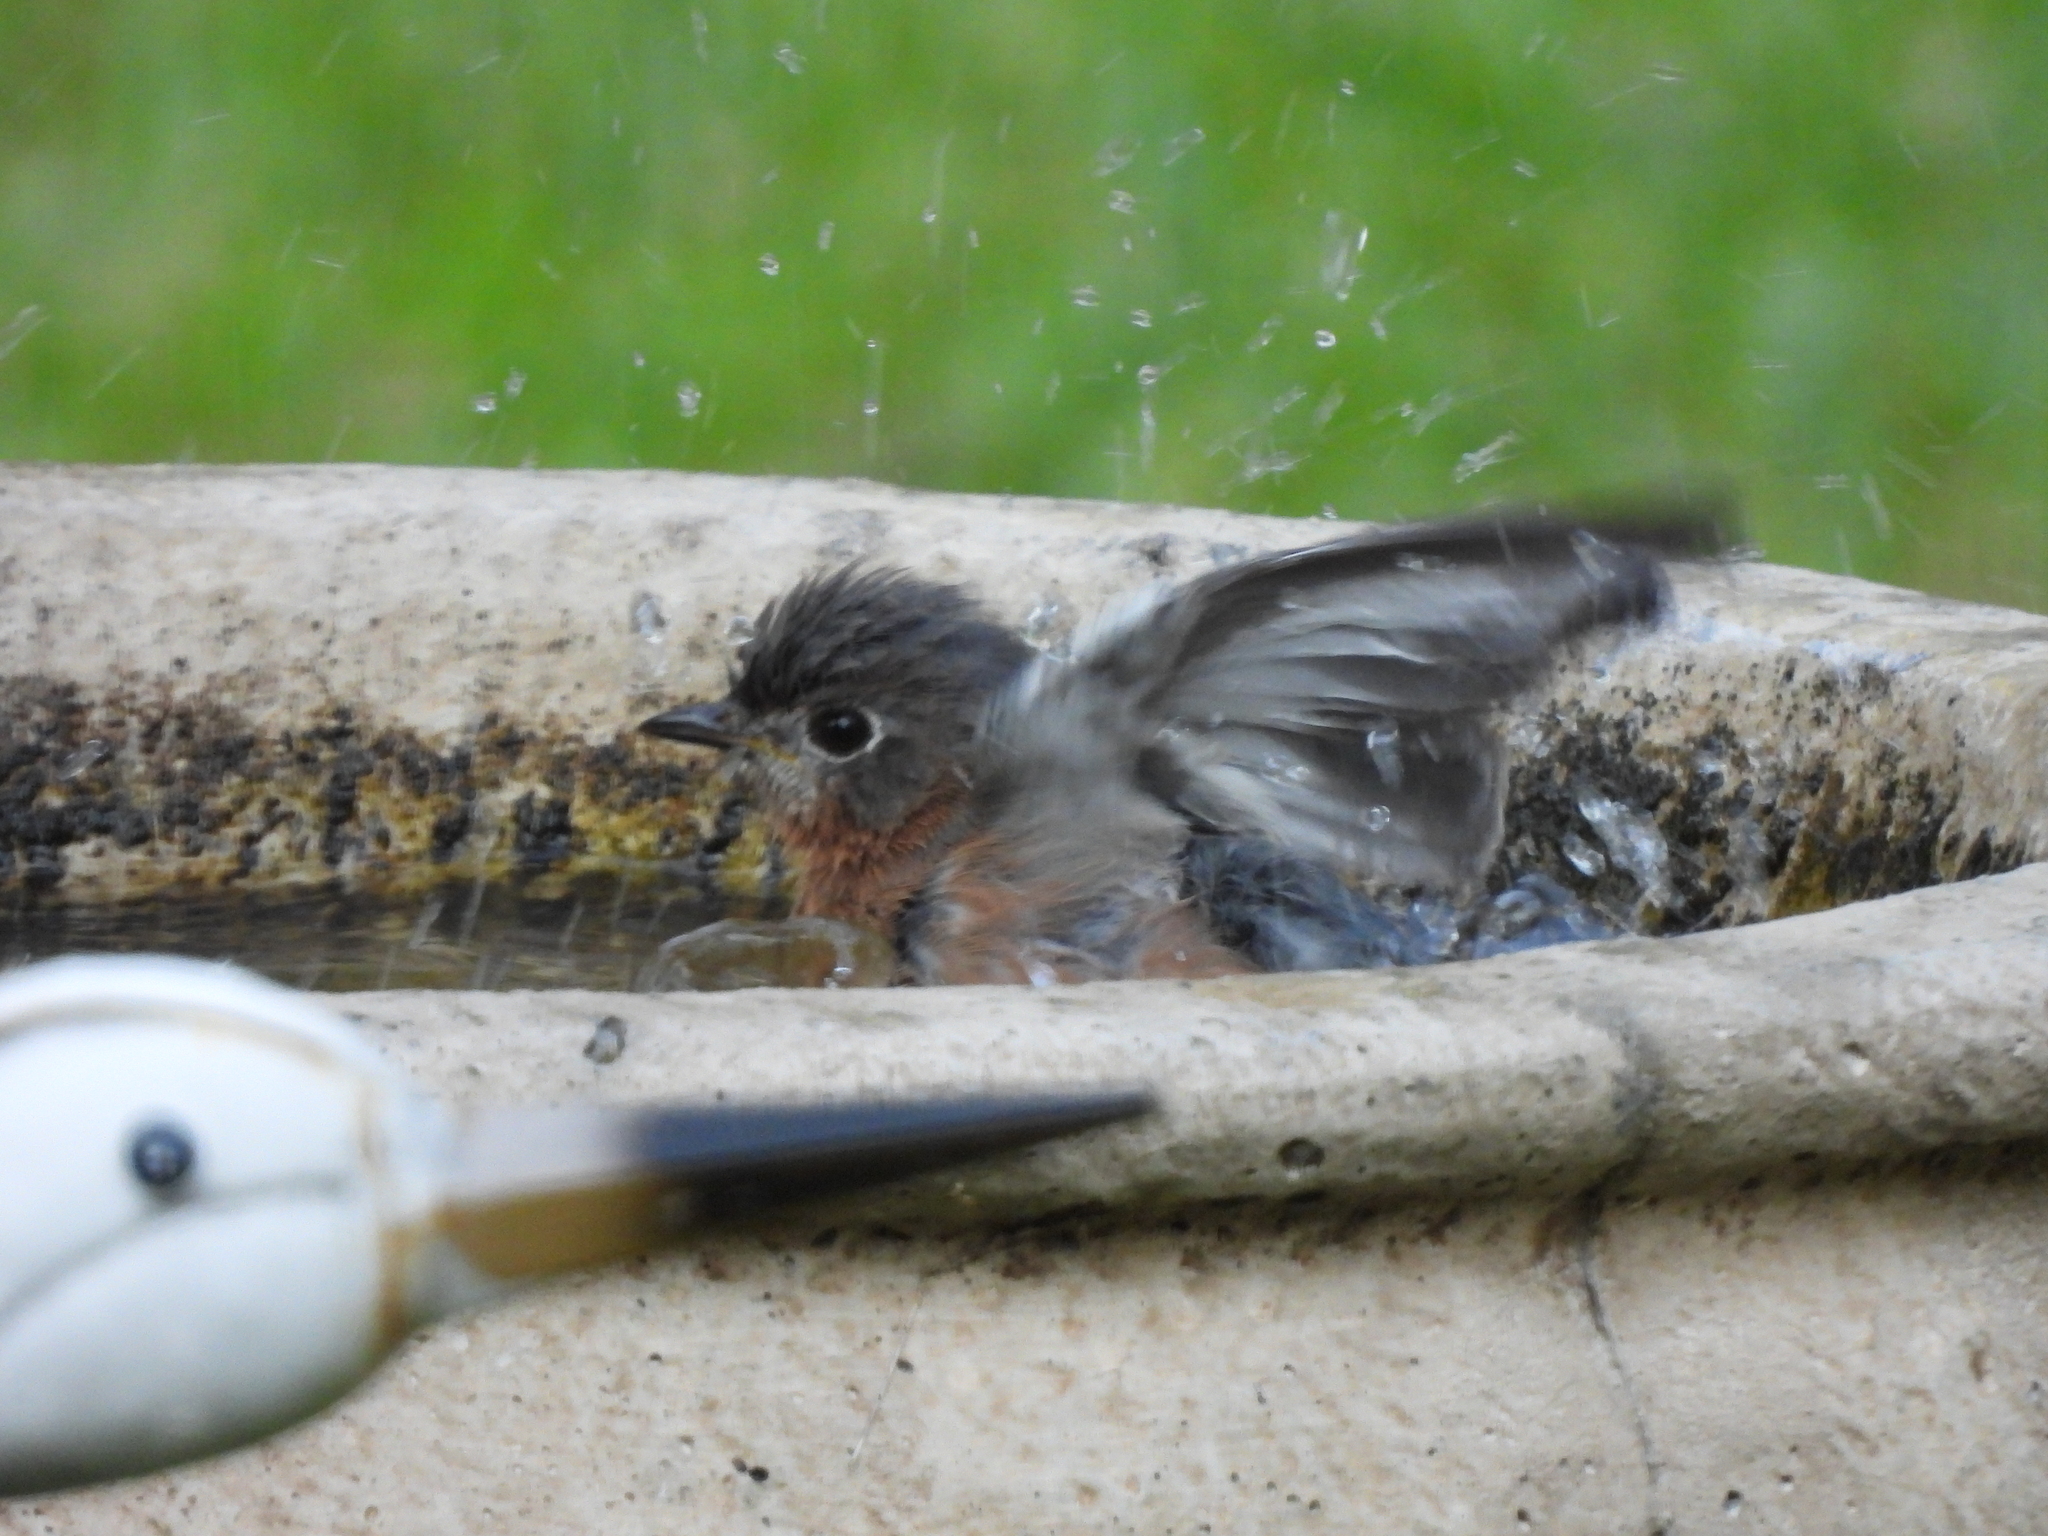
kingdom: Animalia
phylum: Chordata
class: Aves
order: Passeriformes
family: Turdidae
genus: Sialia
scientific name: Sialia sialis
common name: Eastern bluebird
